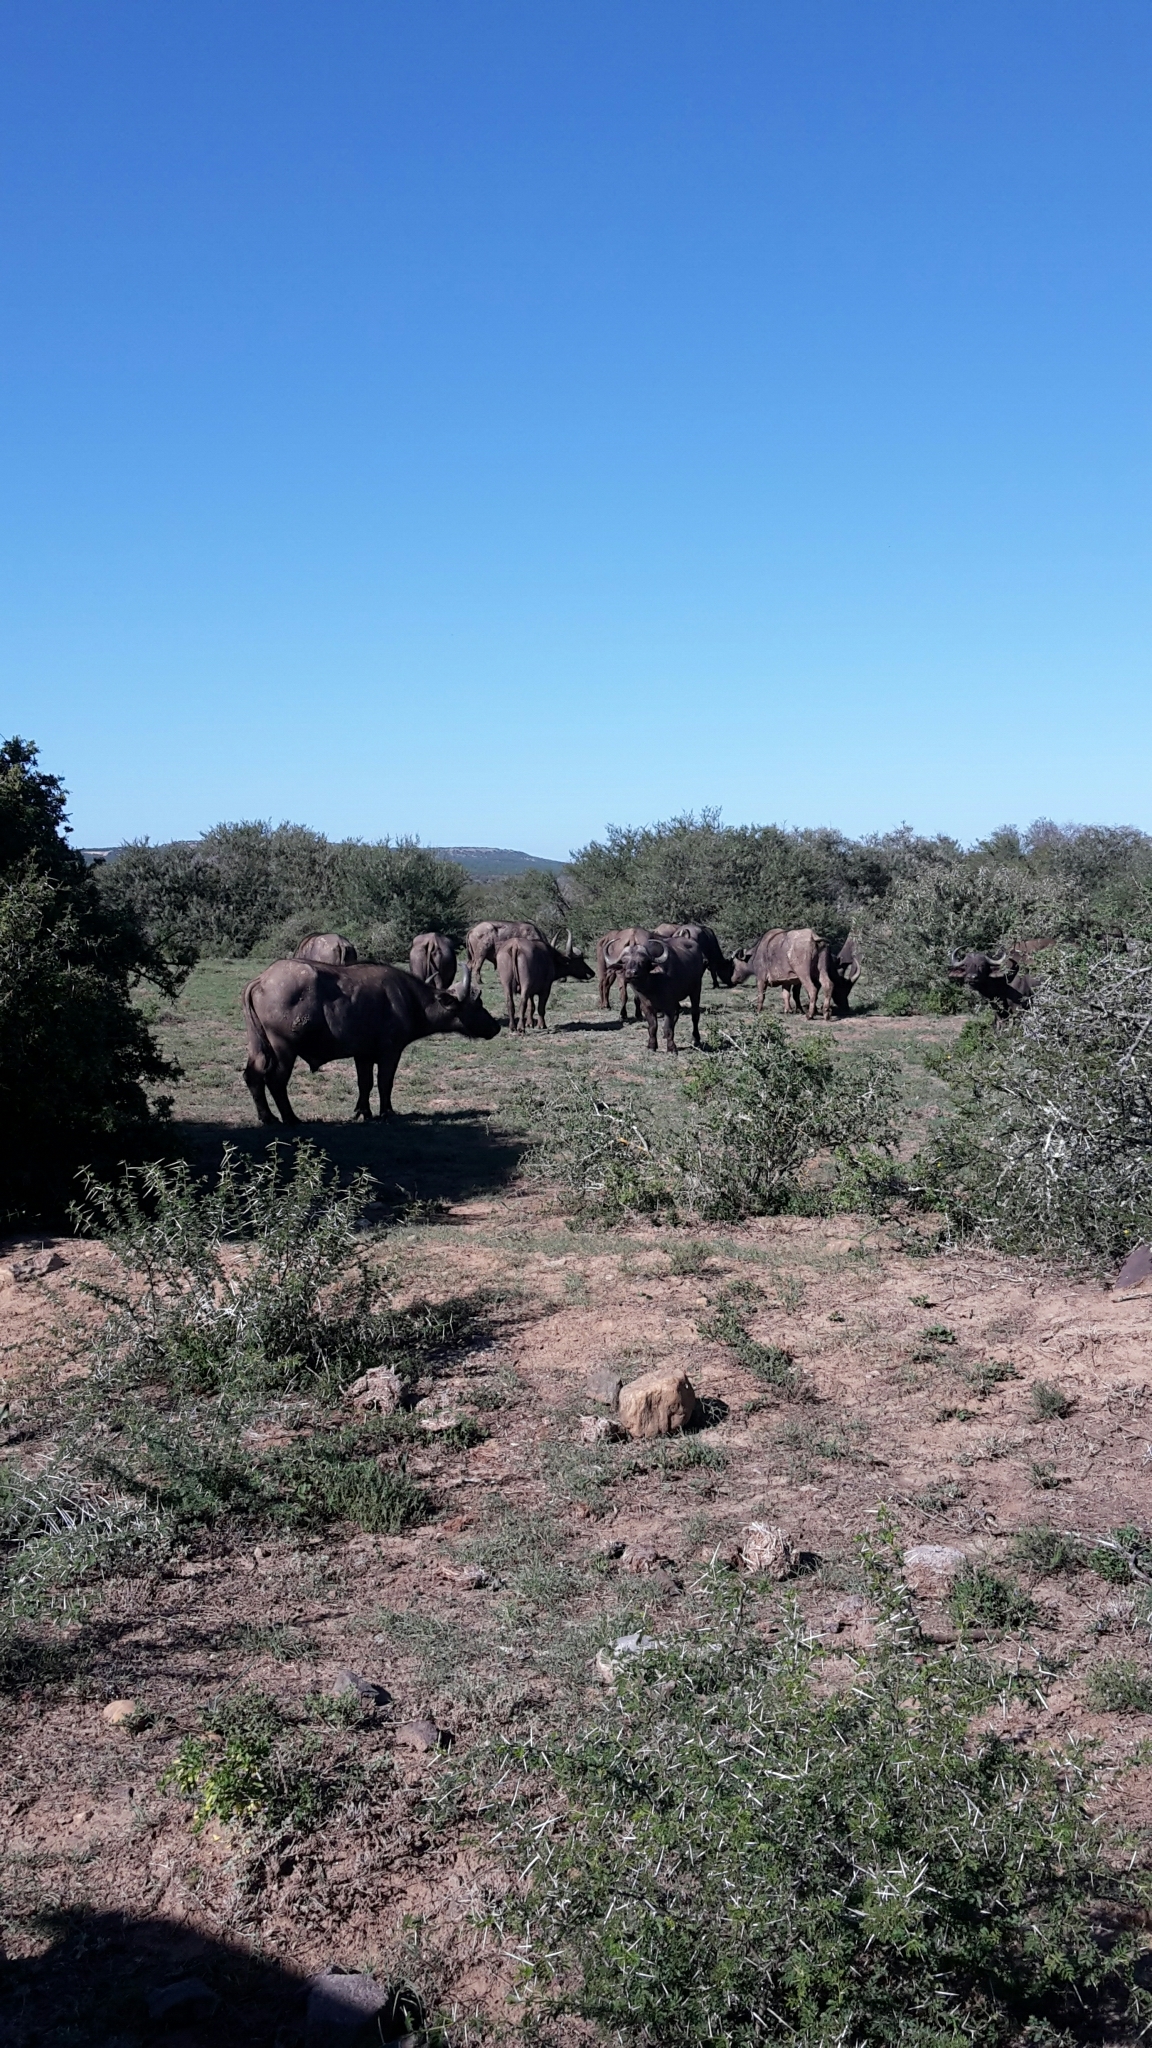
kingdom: Animalia
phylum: Chordata
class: Mammalia
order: Artiodactyla
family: Bovidae
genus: Syncerus
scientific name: Syncerus caffer
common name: African buffalo
